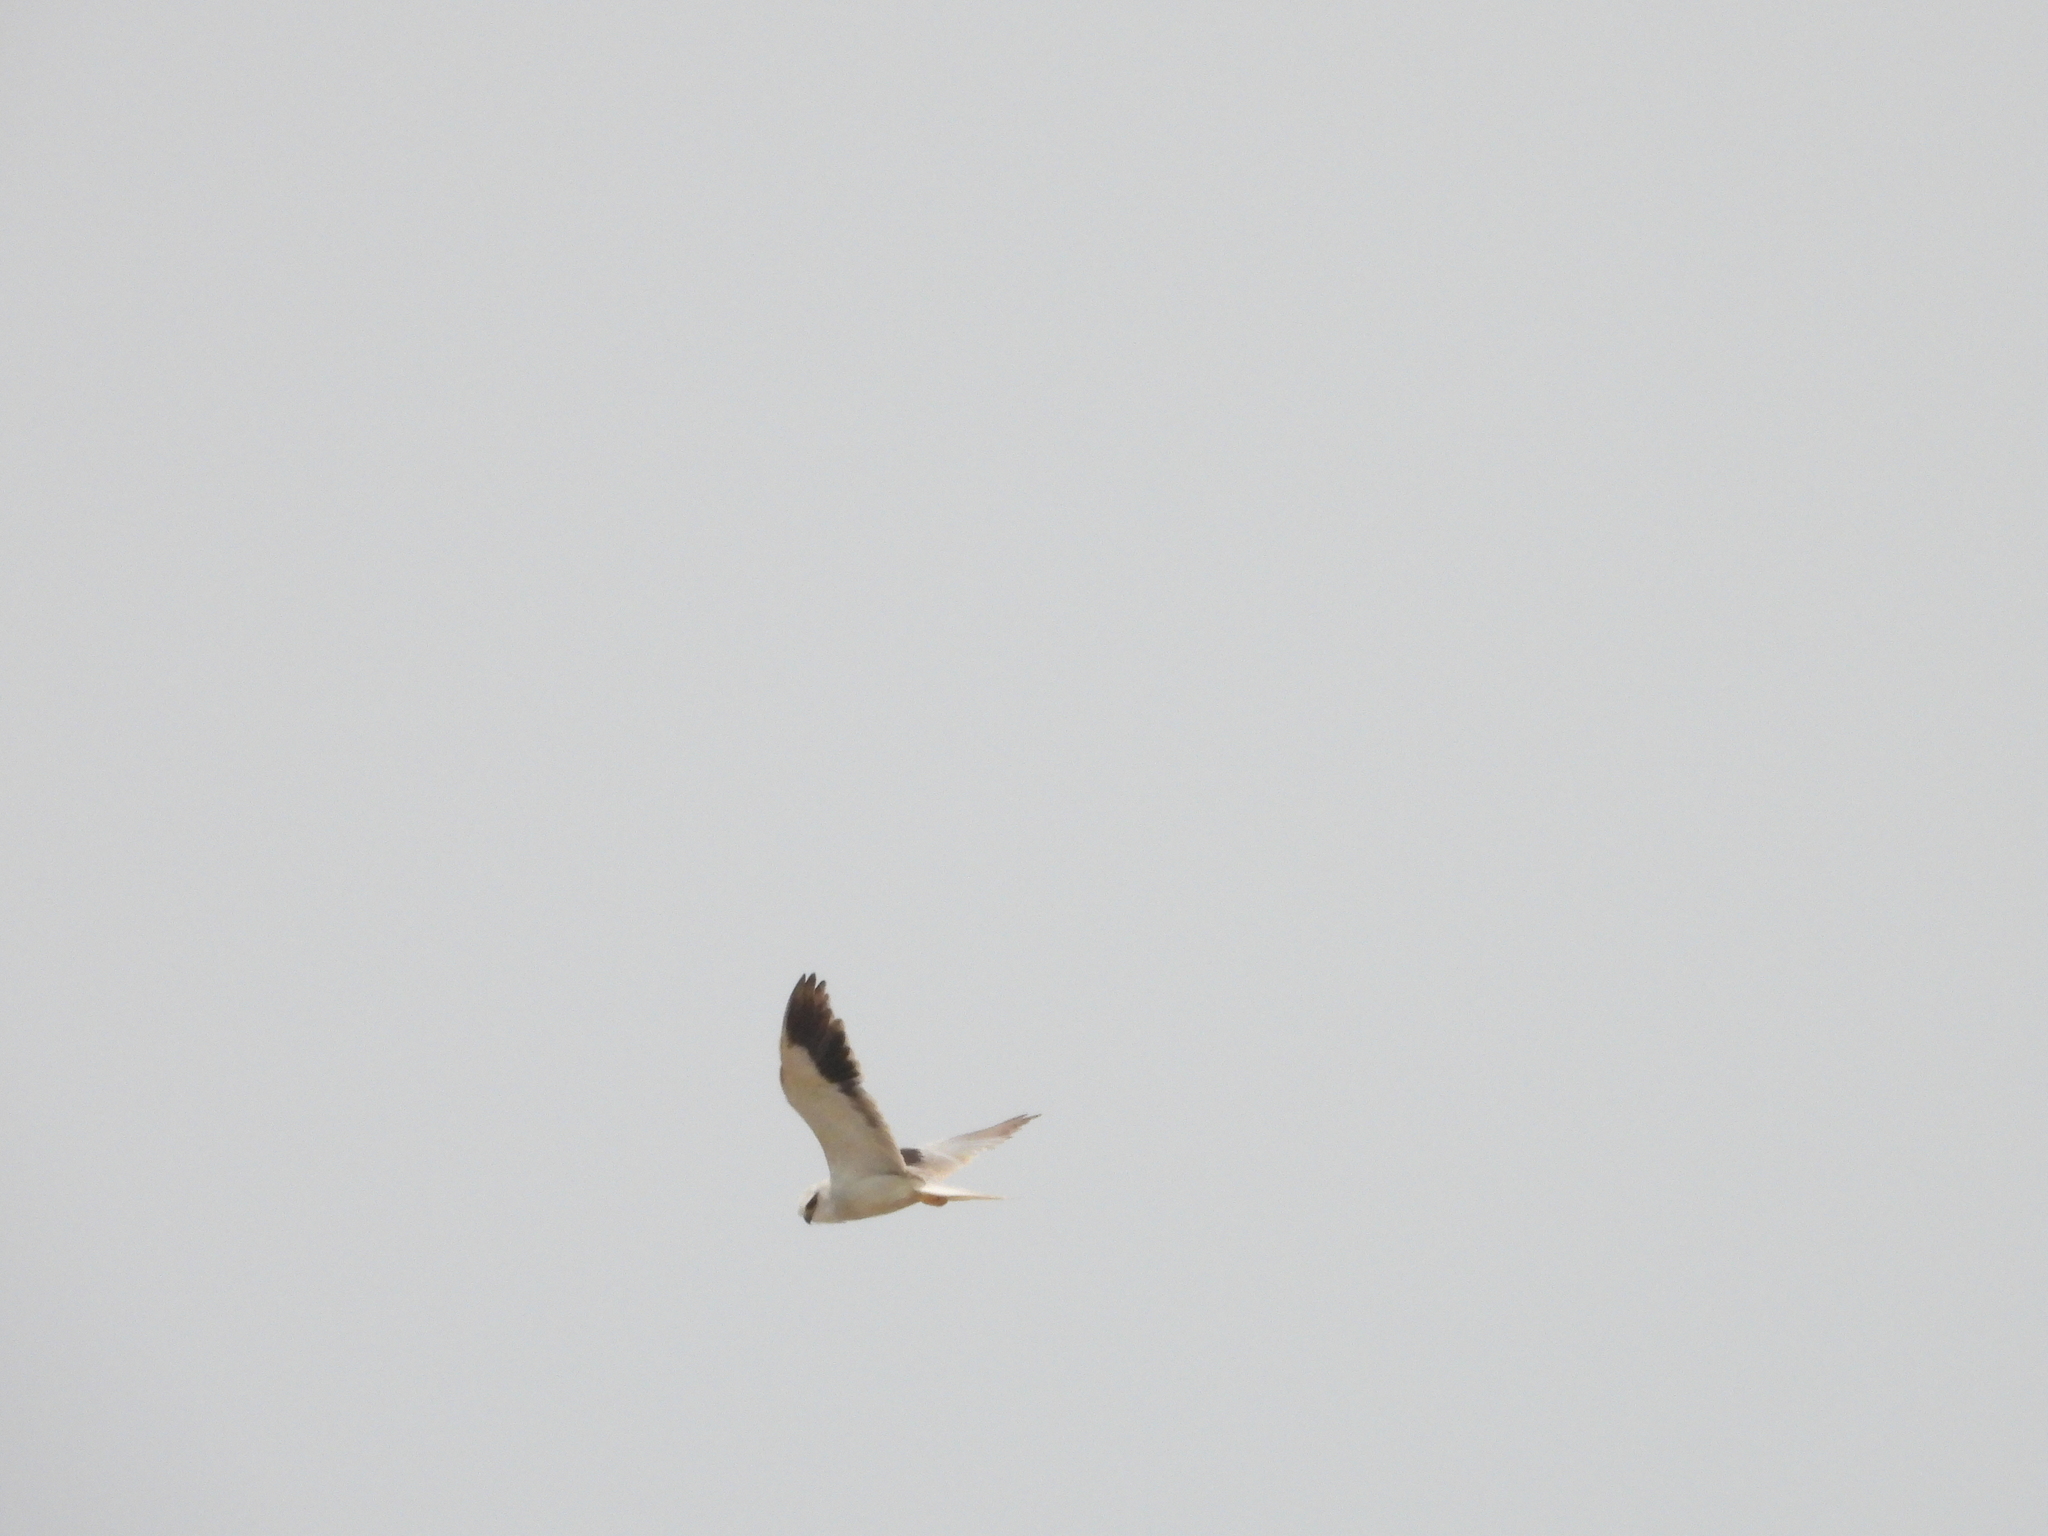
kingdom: Animalia
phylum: Chordata
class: Aves
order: Accipitriformes
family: Accipitridae
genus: Elanus
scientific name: Elanus caeruleus
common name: Black-winged kite
